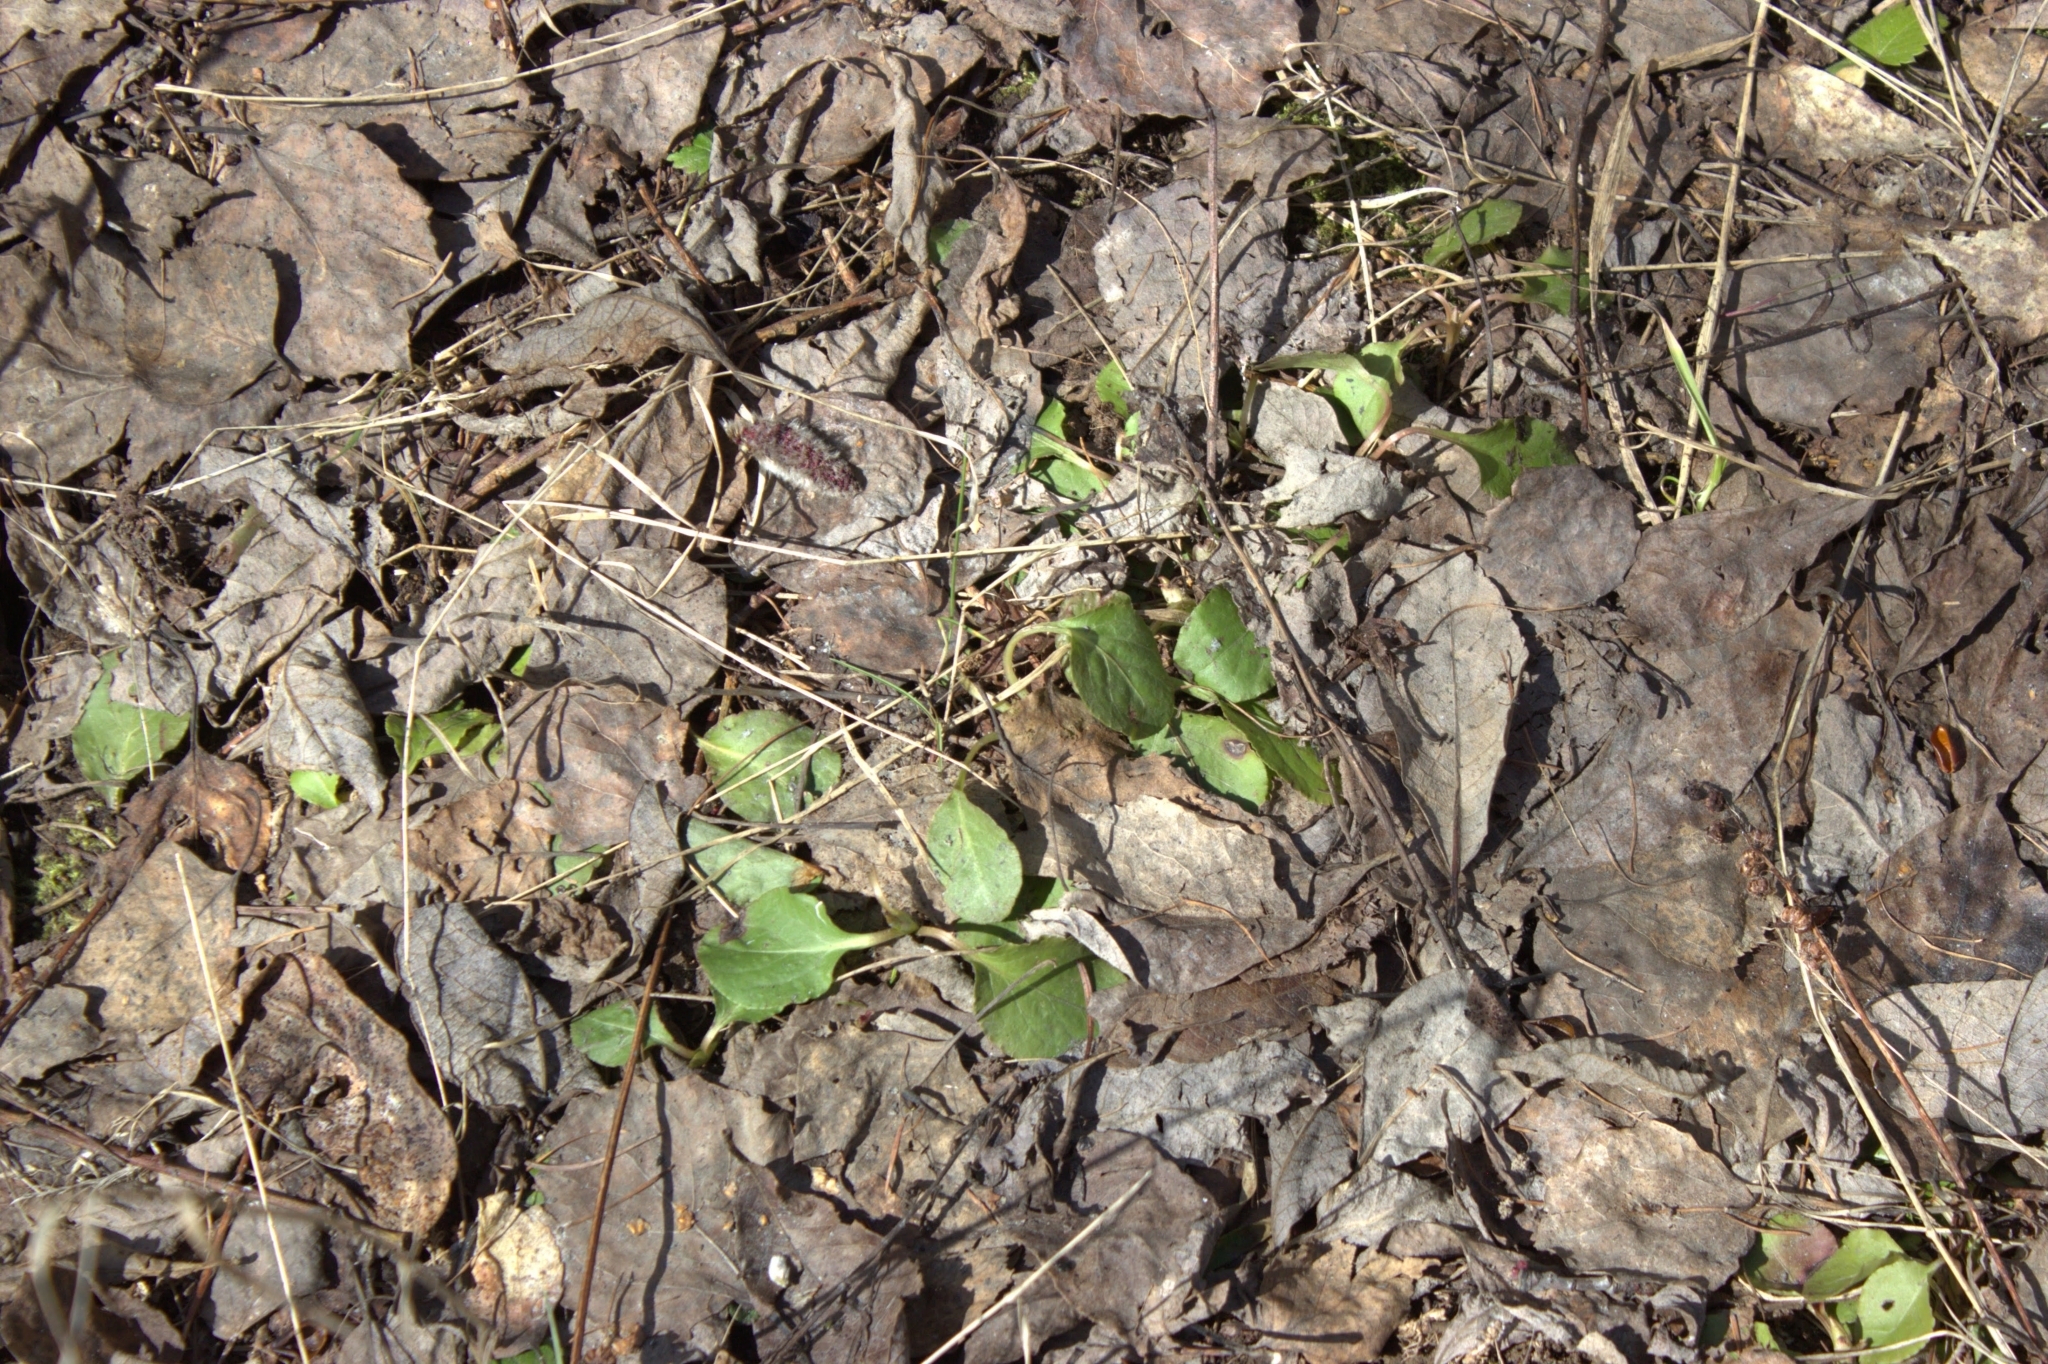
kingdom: Plantae
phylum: Tracheophyta
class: Magnoliopsida
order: Ericales
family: Ericaceae
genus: Pyrola
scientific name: Pyrola
